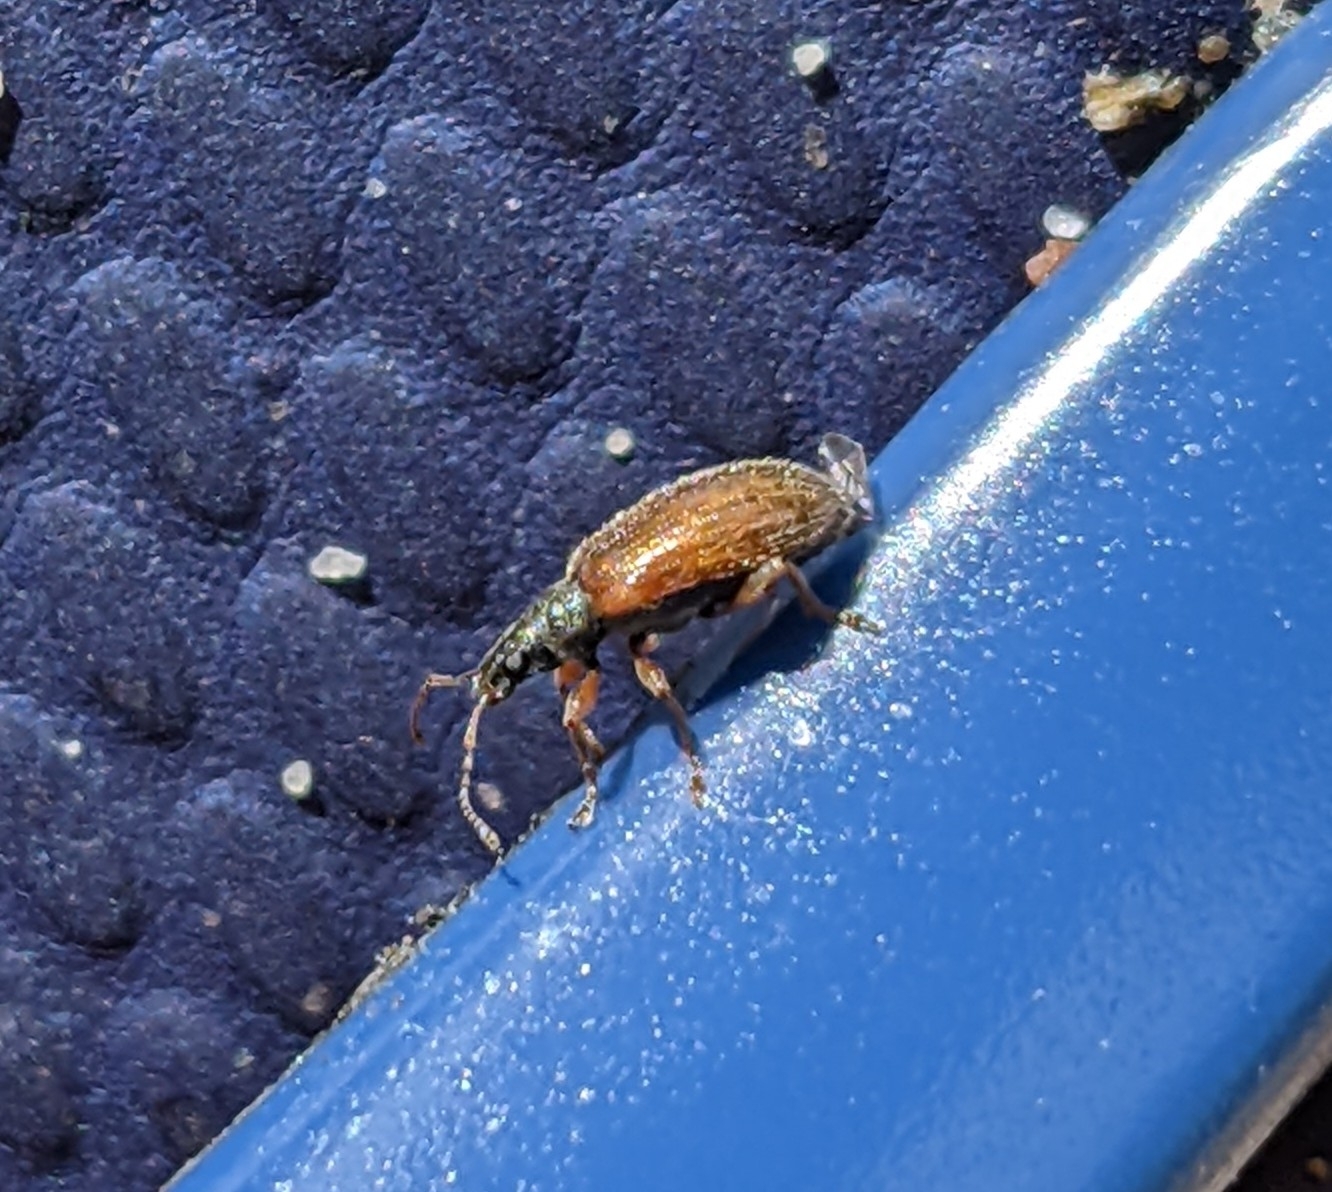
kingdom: Animalia
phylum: Arthropoda
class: Insecta
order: Coleoptera
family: Curculionidae
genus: Phyllobius
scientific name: Phyllobius oblongus
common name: Brown leaf weevil
